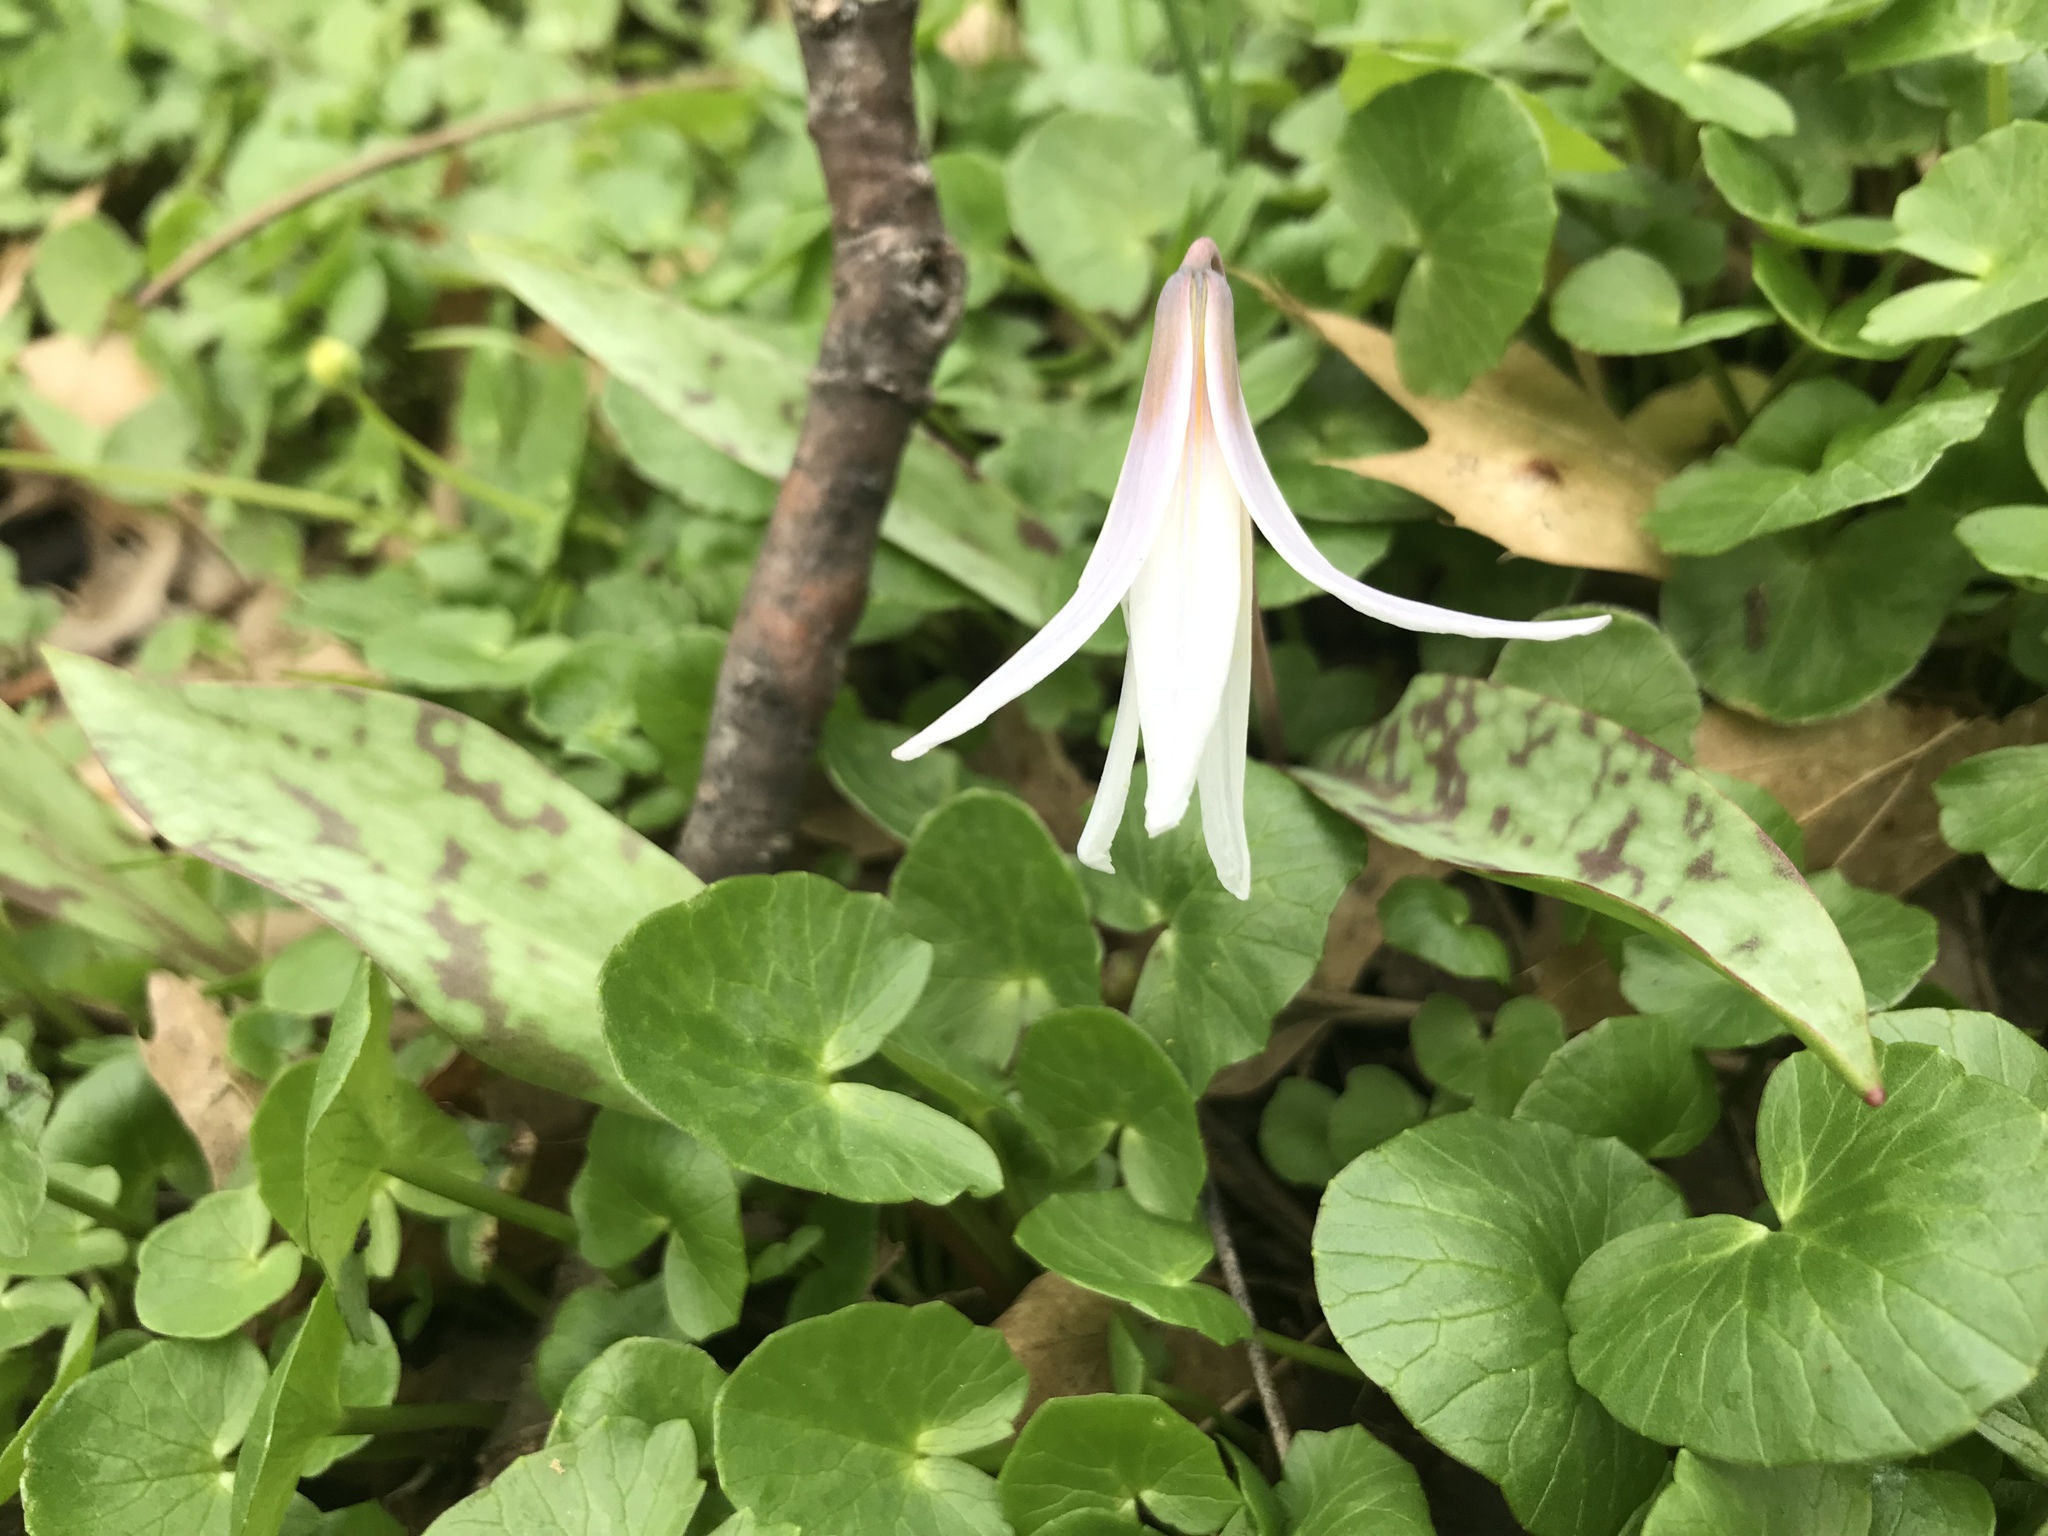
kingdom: Plantae
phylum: Tracheophyta
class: Liliopsida
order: Liliales
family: Liliaceae
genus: Erythronium
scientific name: Erythronium albidum
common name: White trout-lily
